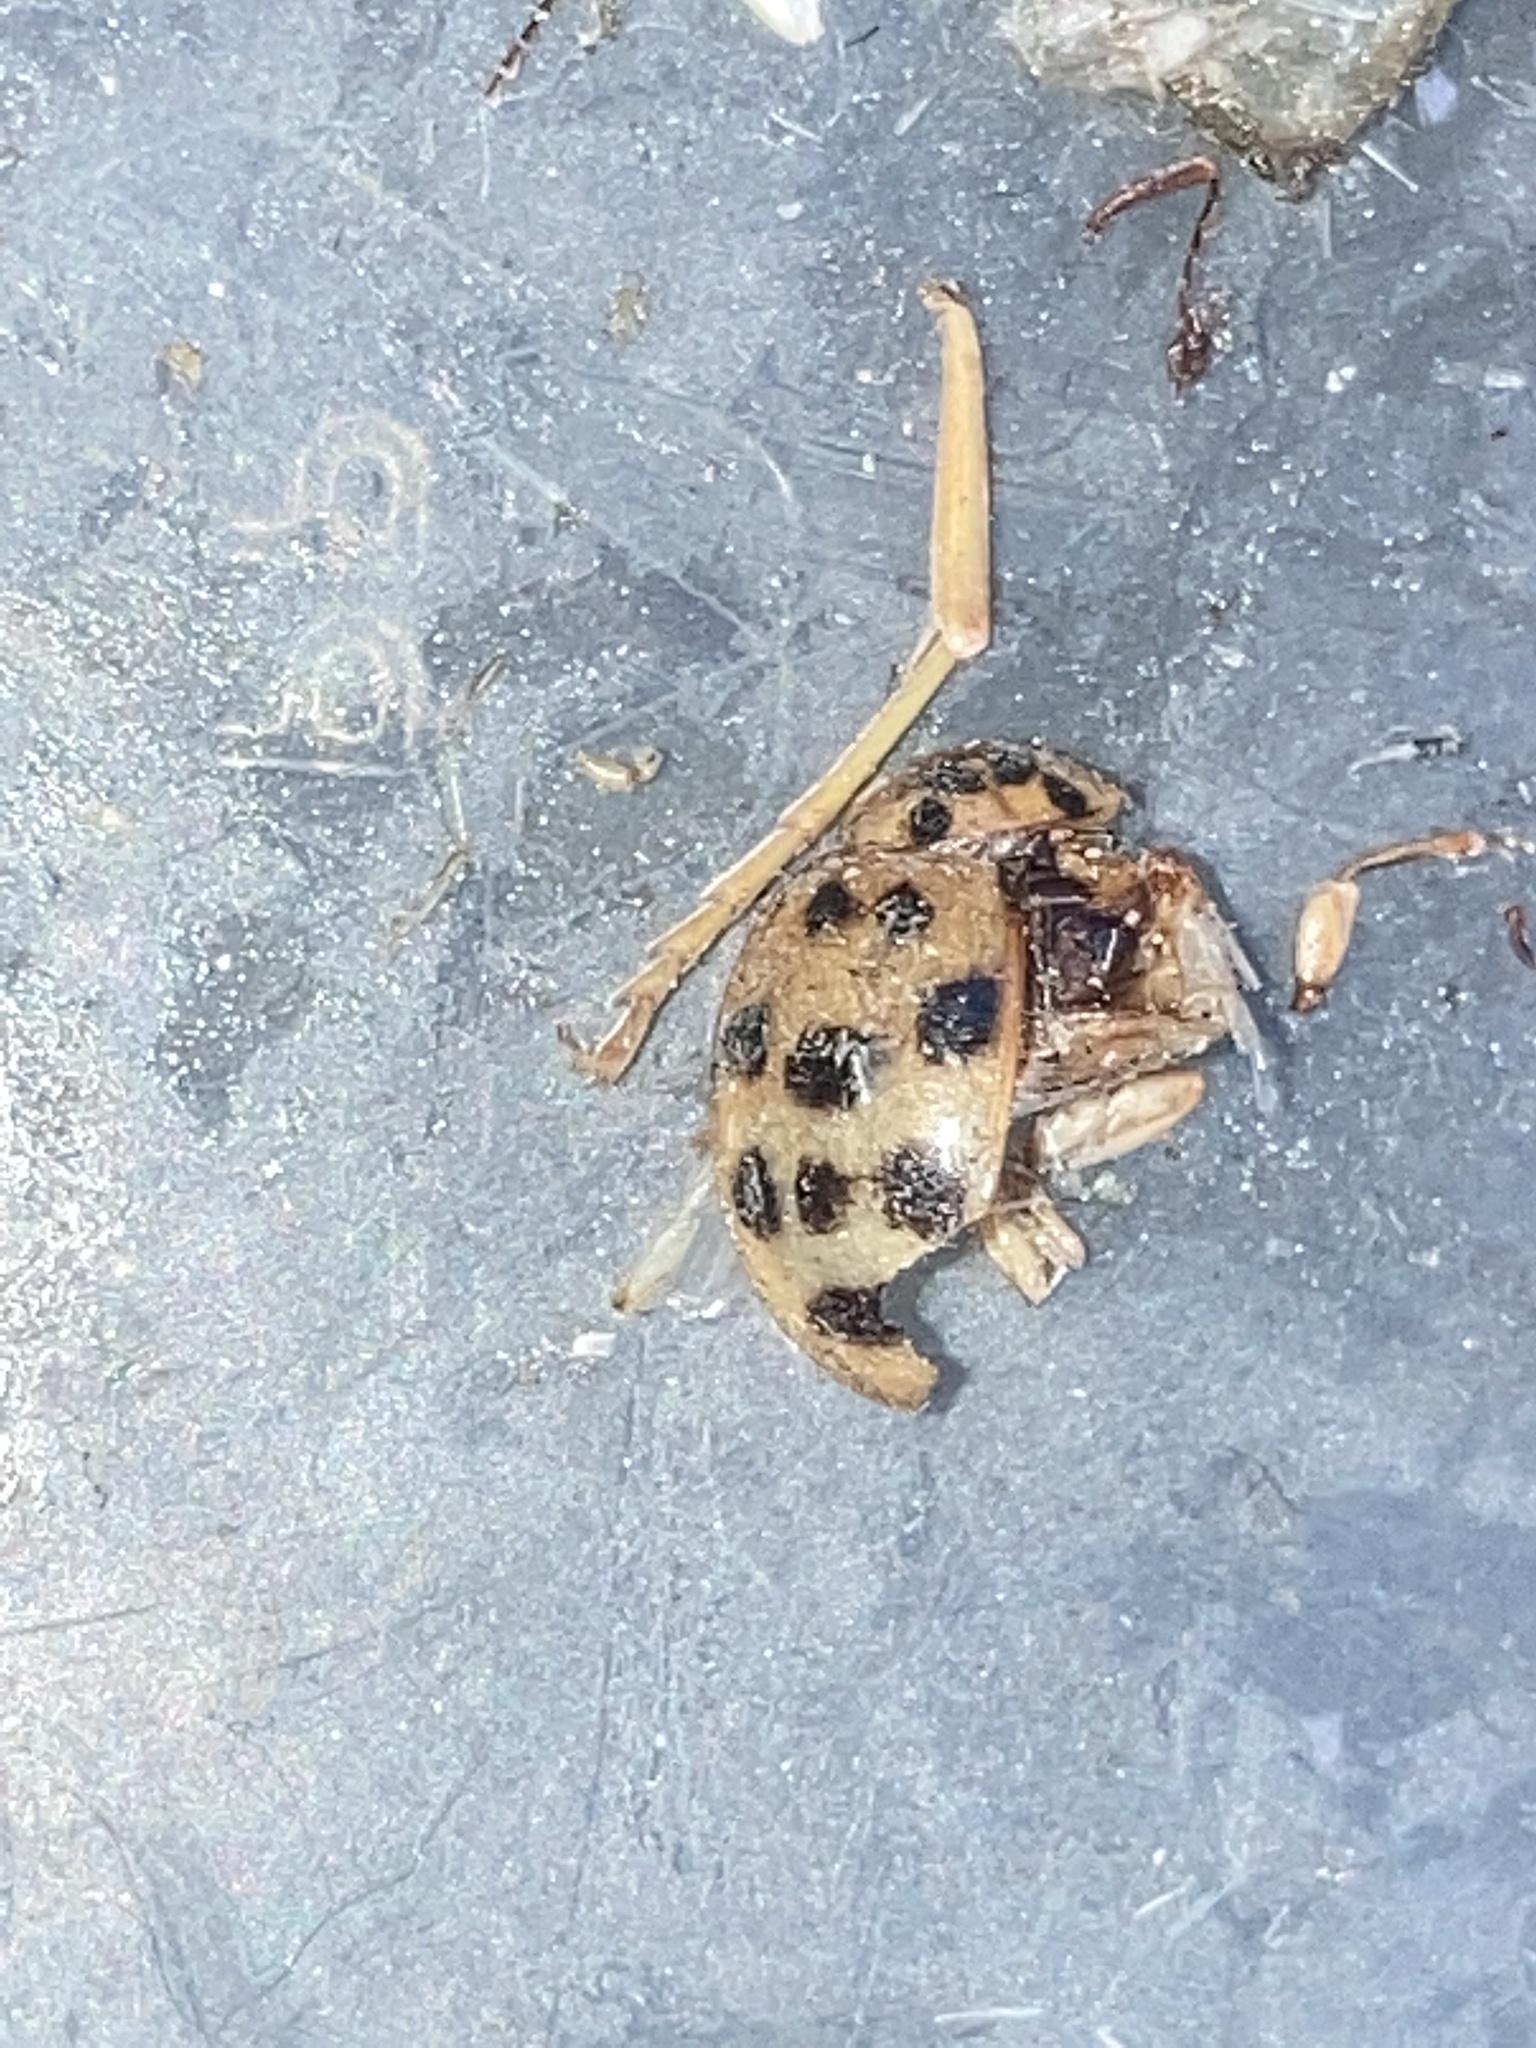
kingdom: Animalia
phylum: Arthropoda
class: Insecta
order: Coleoptera
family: Coccinellidae
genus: Harmonia
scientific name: Harmonia axyridis
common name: Harlequin ladybird
